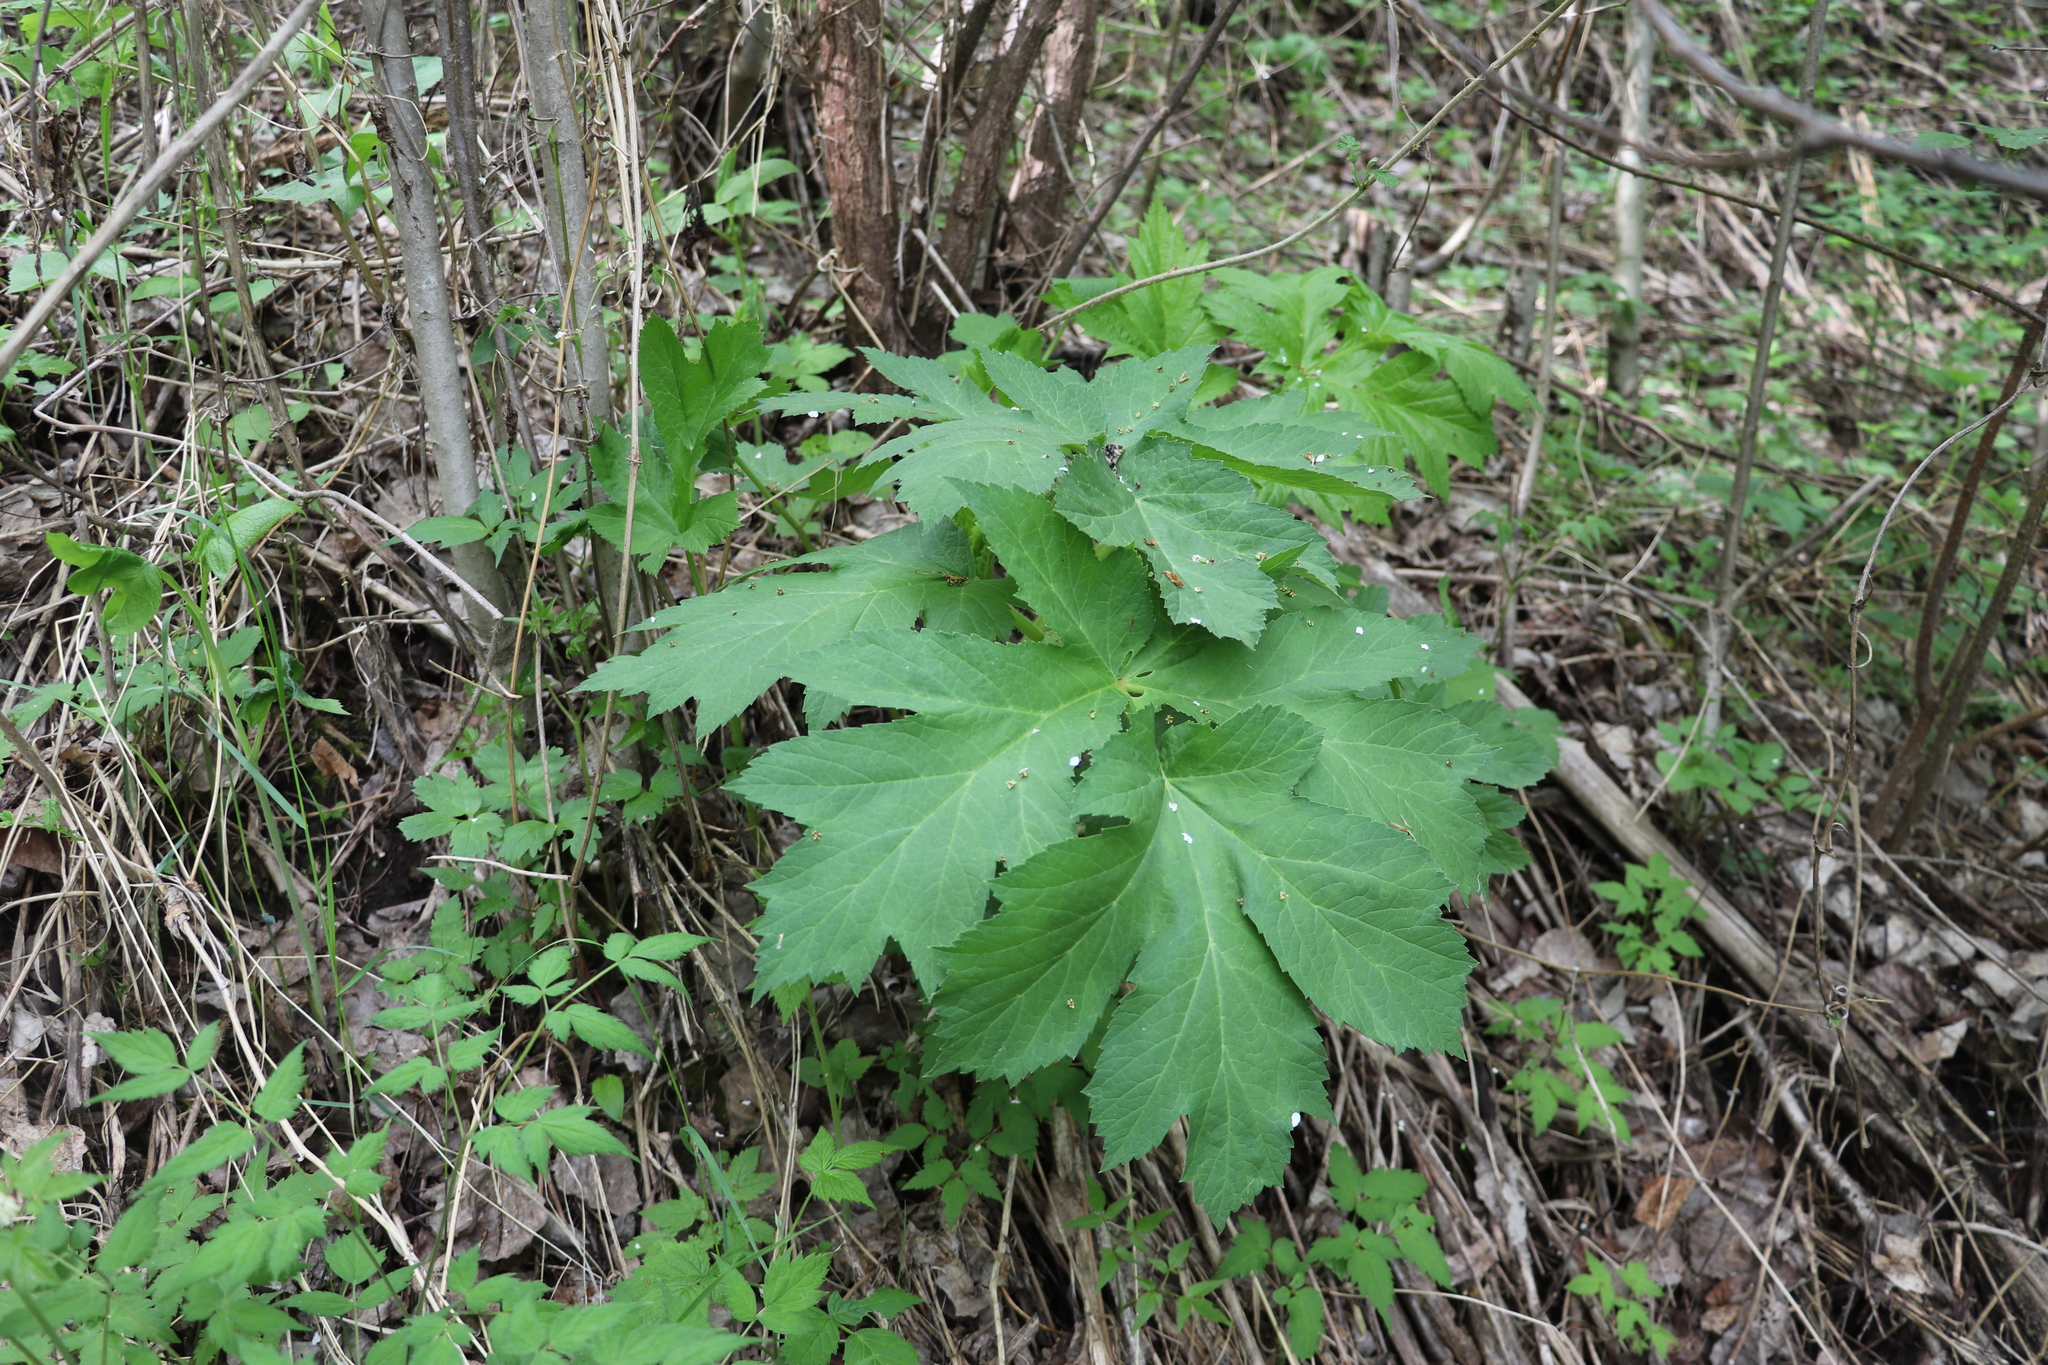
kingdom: Plantae
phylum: Tracheophyta
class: Magnoliopsida
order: Apiales
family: Apiaceae
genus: Heracleum
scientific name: Heracleum dissectum
